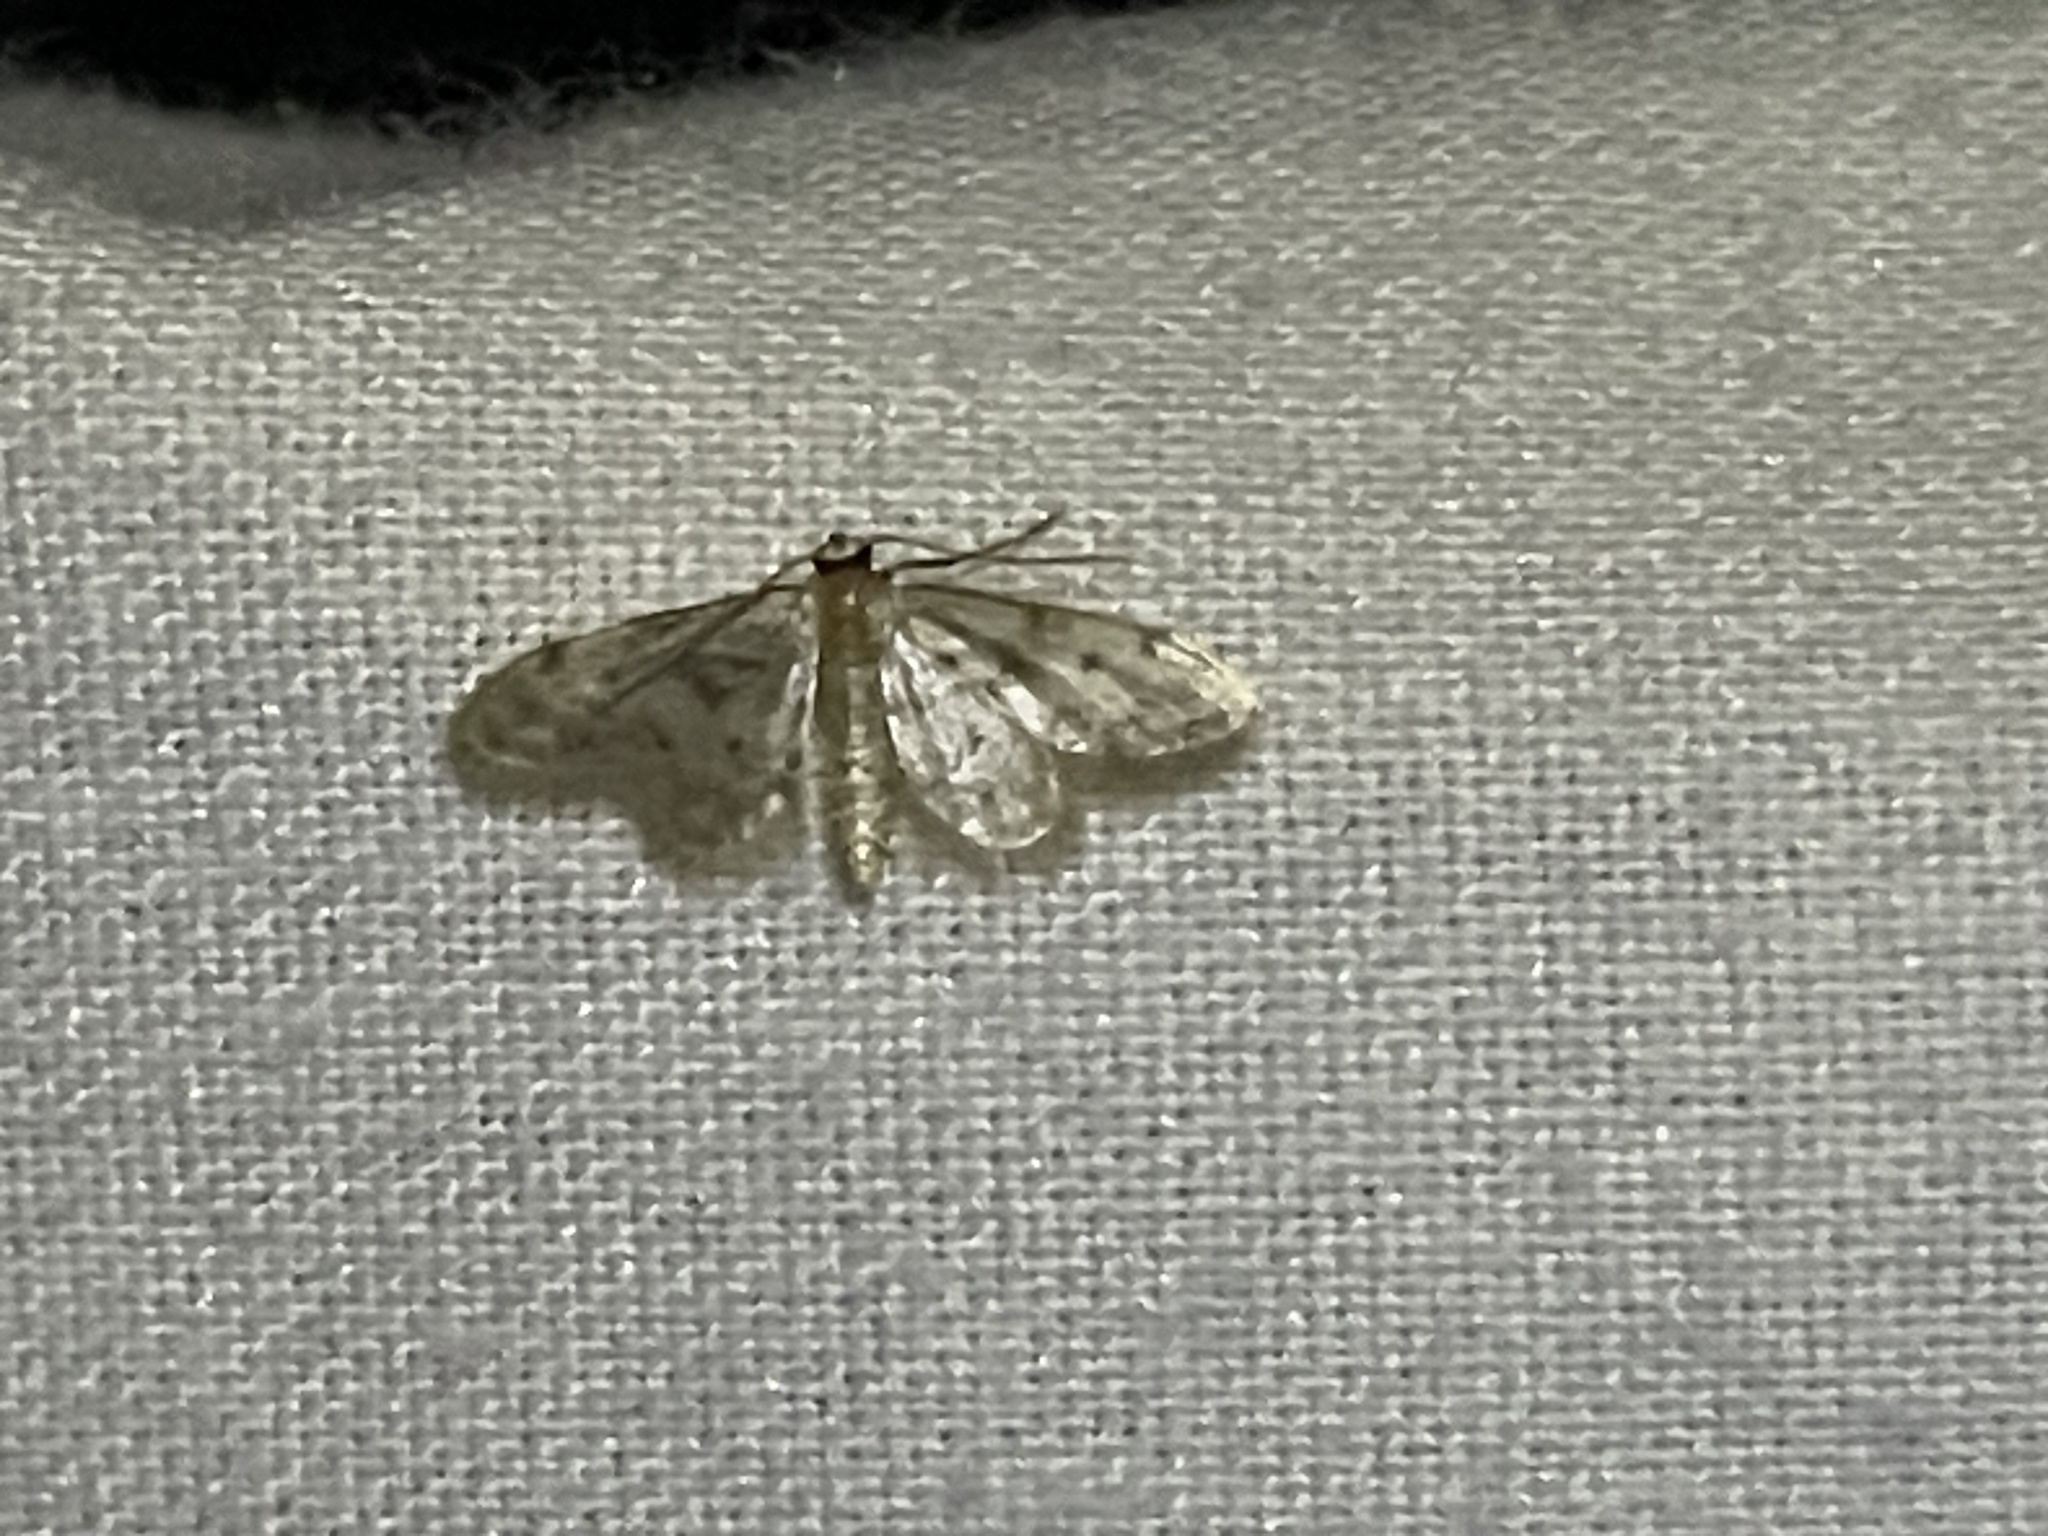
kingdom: Animalia
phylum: Arthropoda
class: Insecta
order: Lepidoptera
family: Geometridae
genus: Idaea
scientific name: Idaea bonifata
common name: Fortunate wave
